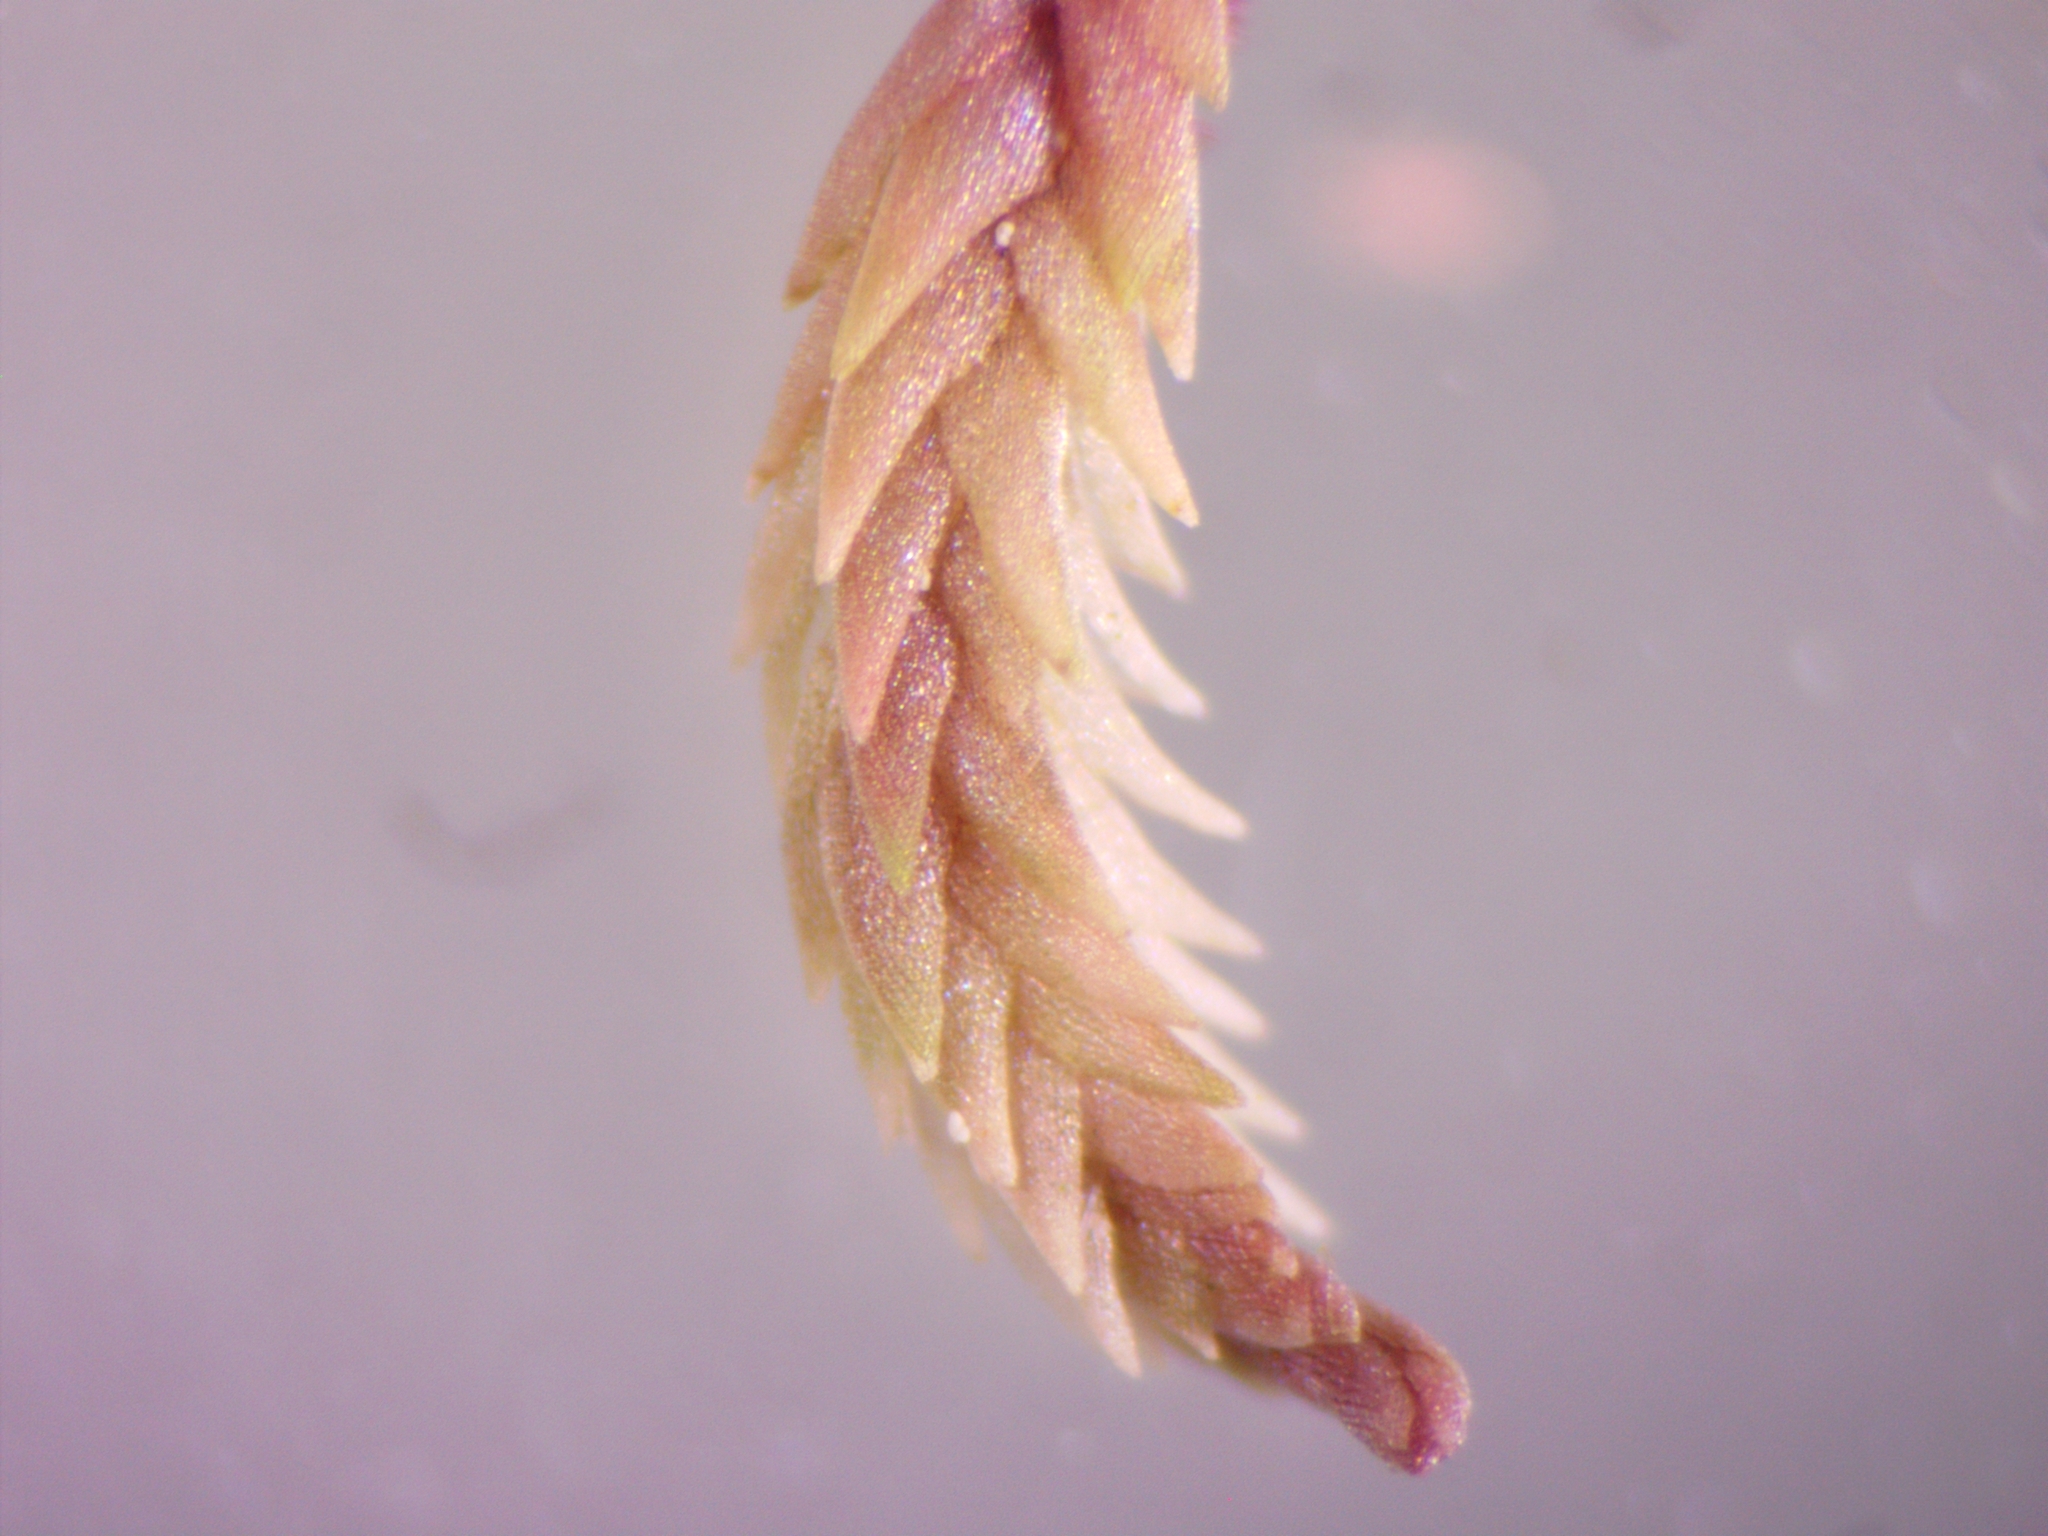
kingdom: Plantae
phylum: Bryophyta
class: Sphagnopsida
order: Sphagnales
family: Sphagnaceae
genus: Sphagnum
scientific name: Sphagnum rubellum
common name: Red peat moss
